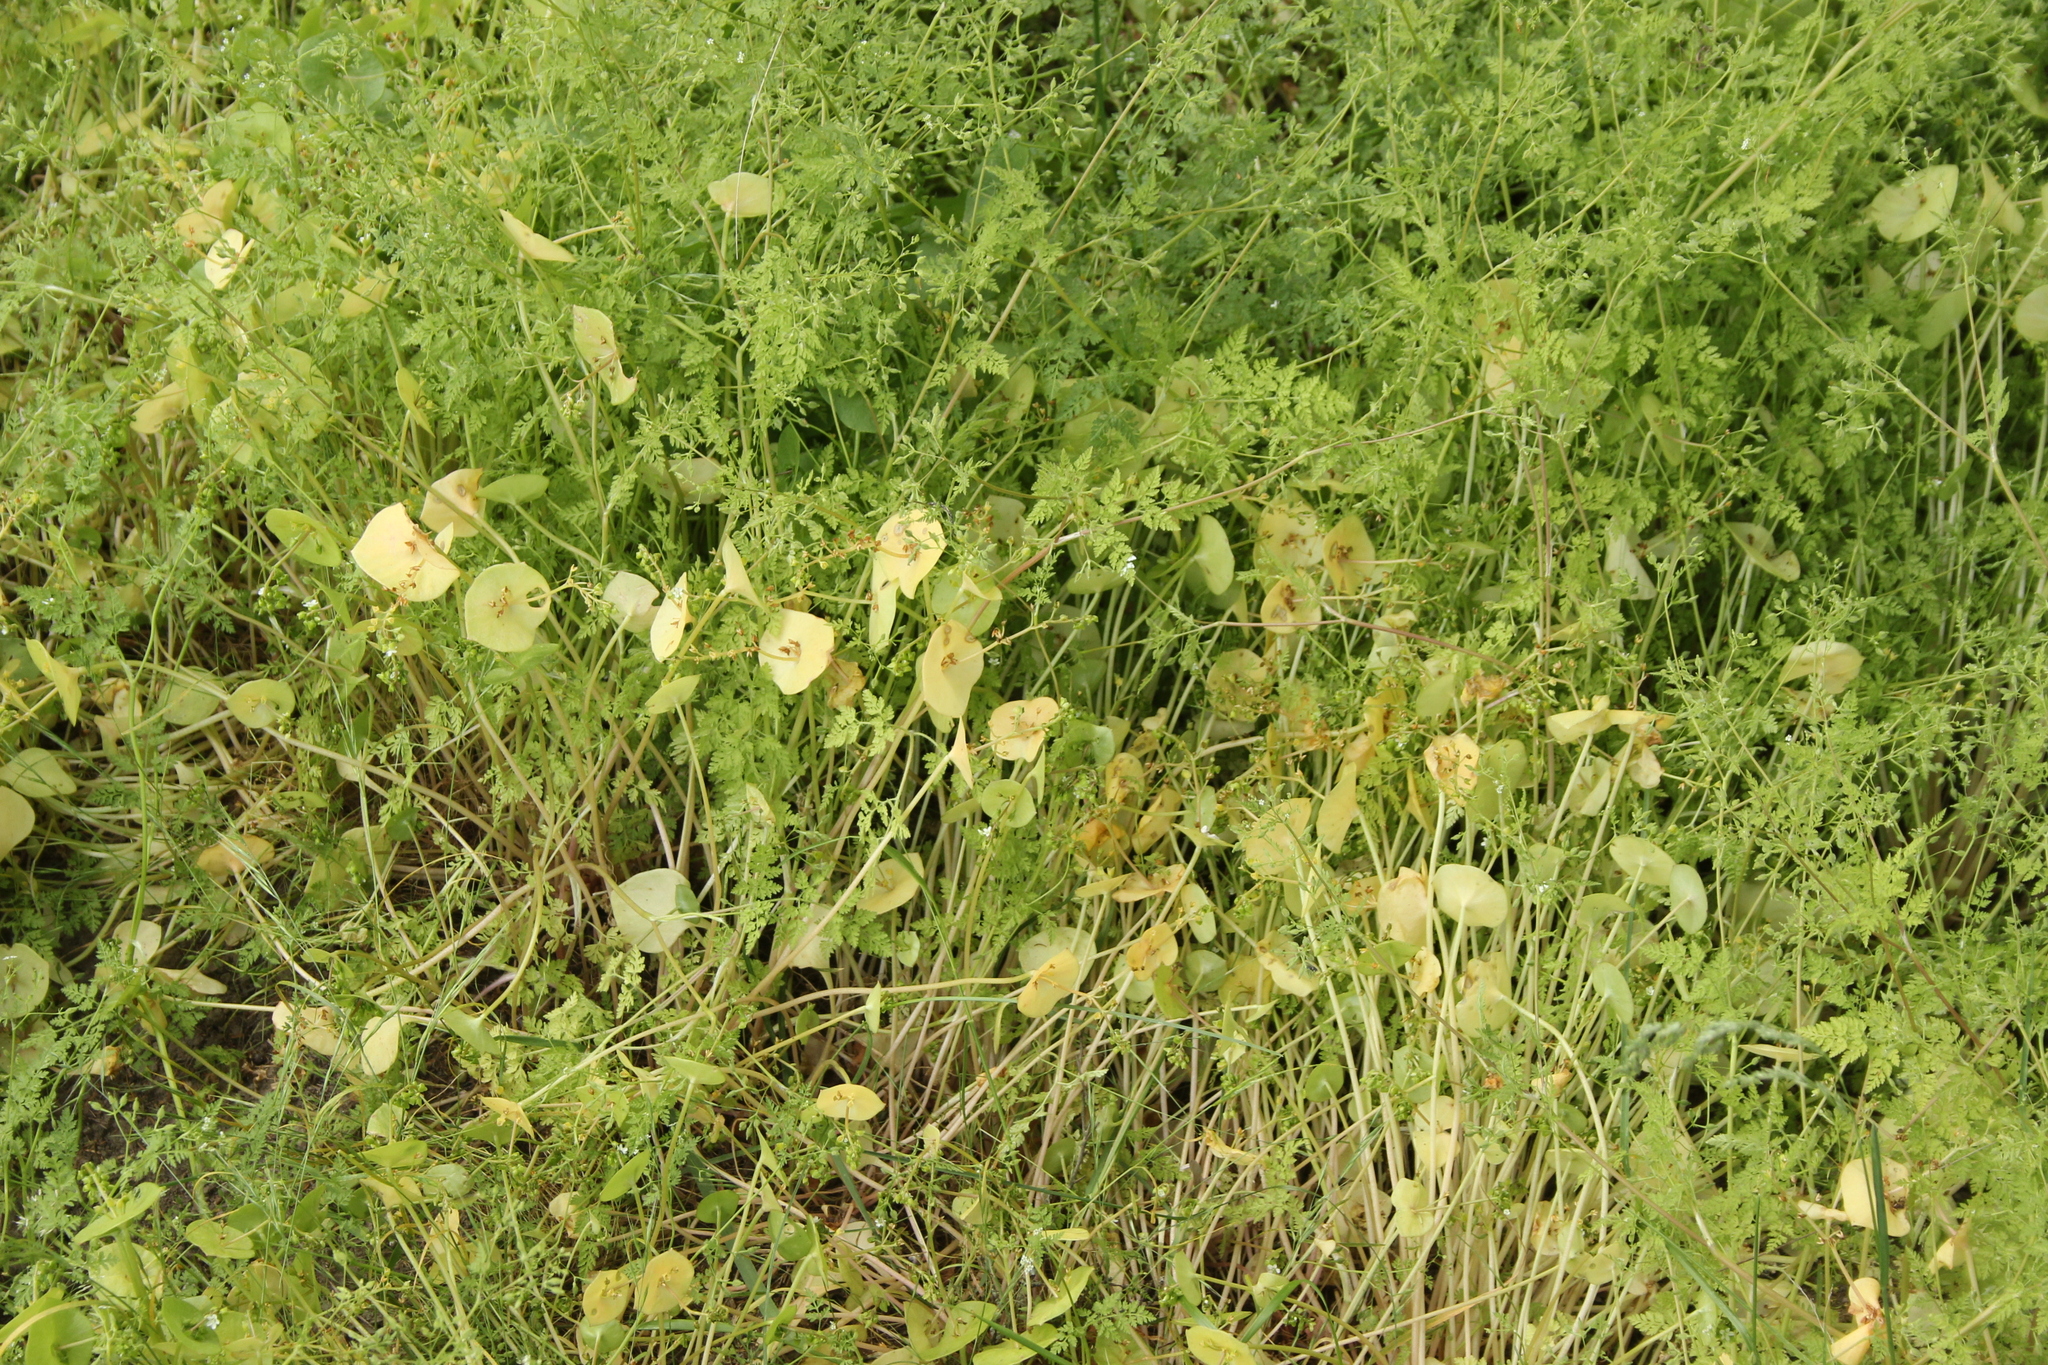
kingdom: Plantae
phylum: Tracheophyta
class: Magnoliopsida
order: Caryophyllales
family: Montiaceae
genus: Claytonia
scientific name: Claytonia perfoliata
